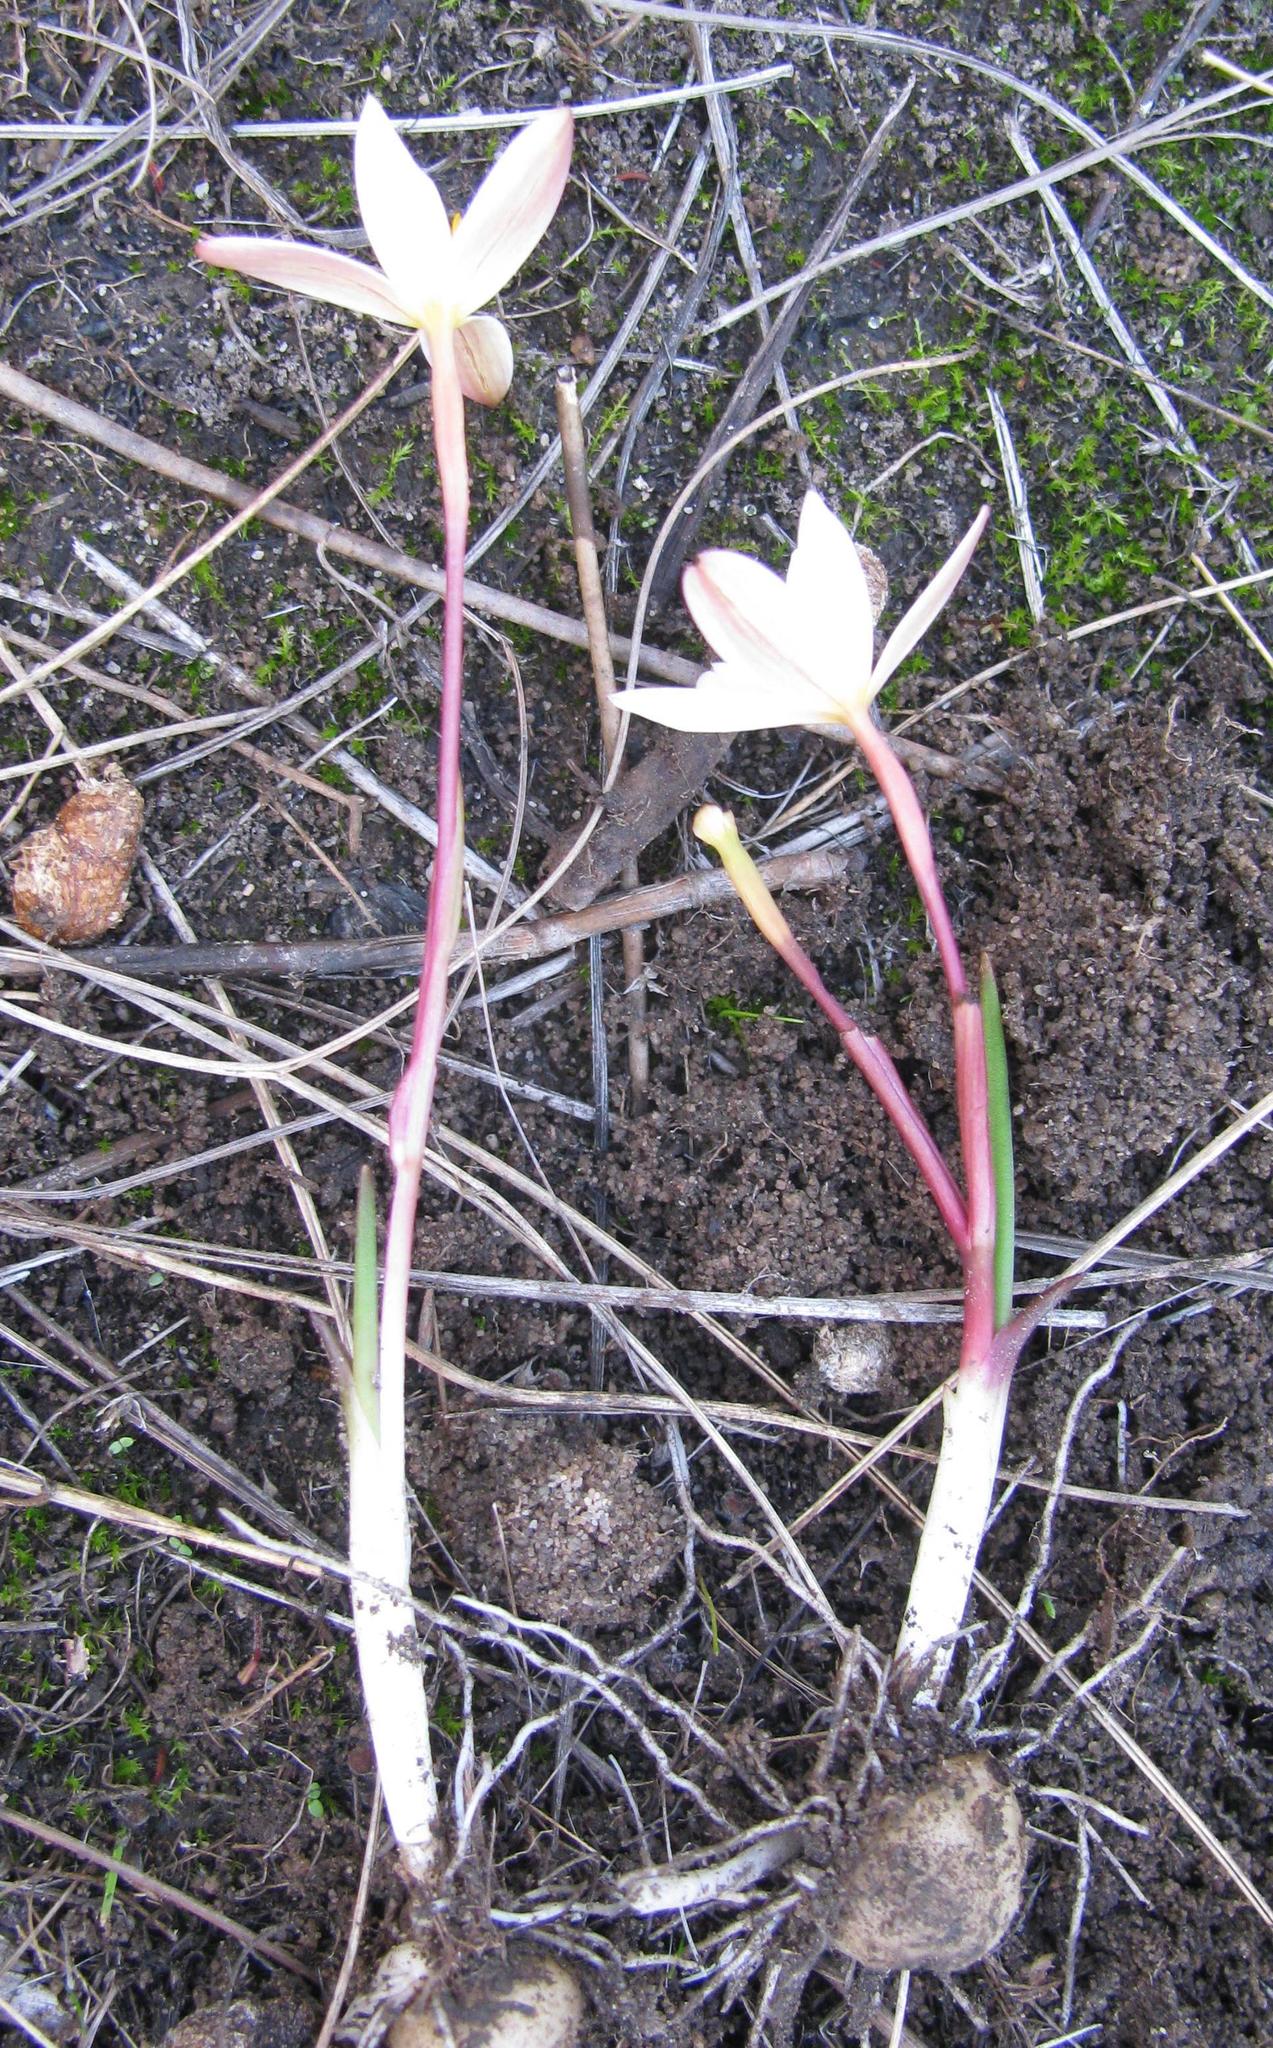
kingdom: Plantae
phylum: Tracheophyta
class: Liliopsida
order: Asparagales
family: Hypoxidaceae
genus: Pauridia
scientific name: Pauridia alba
